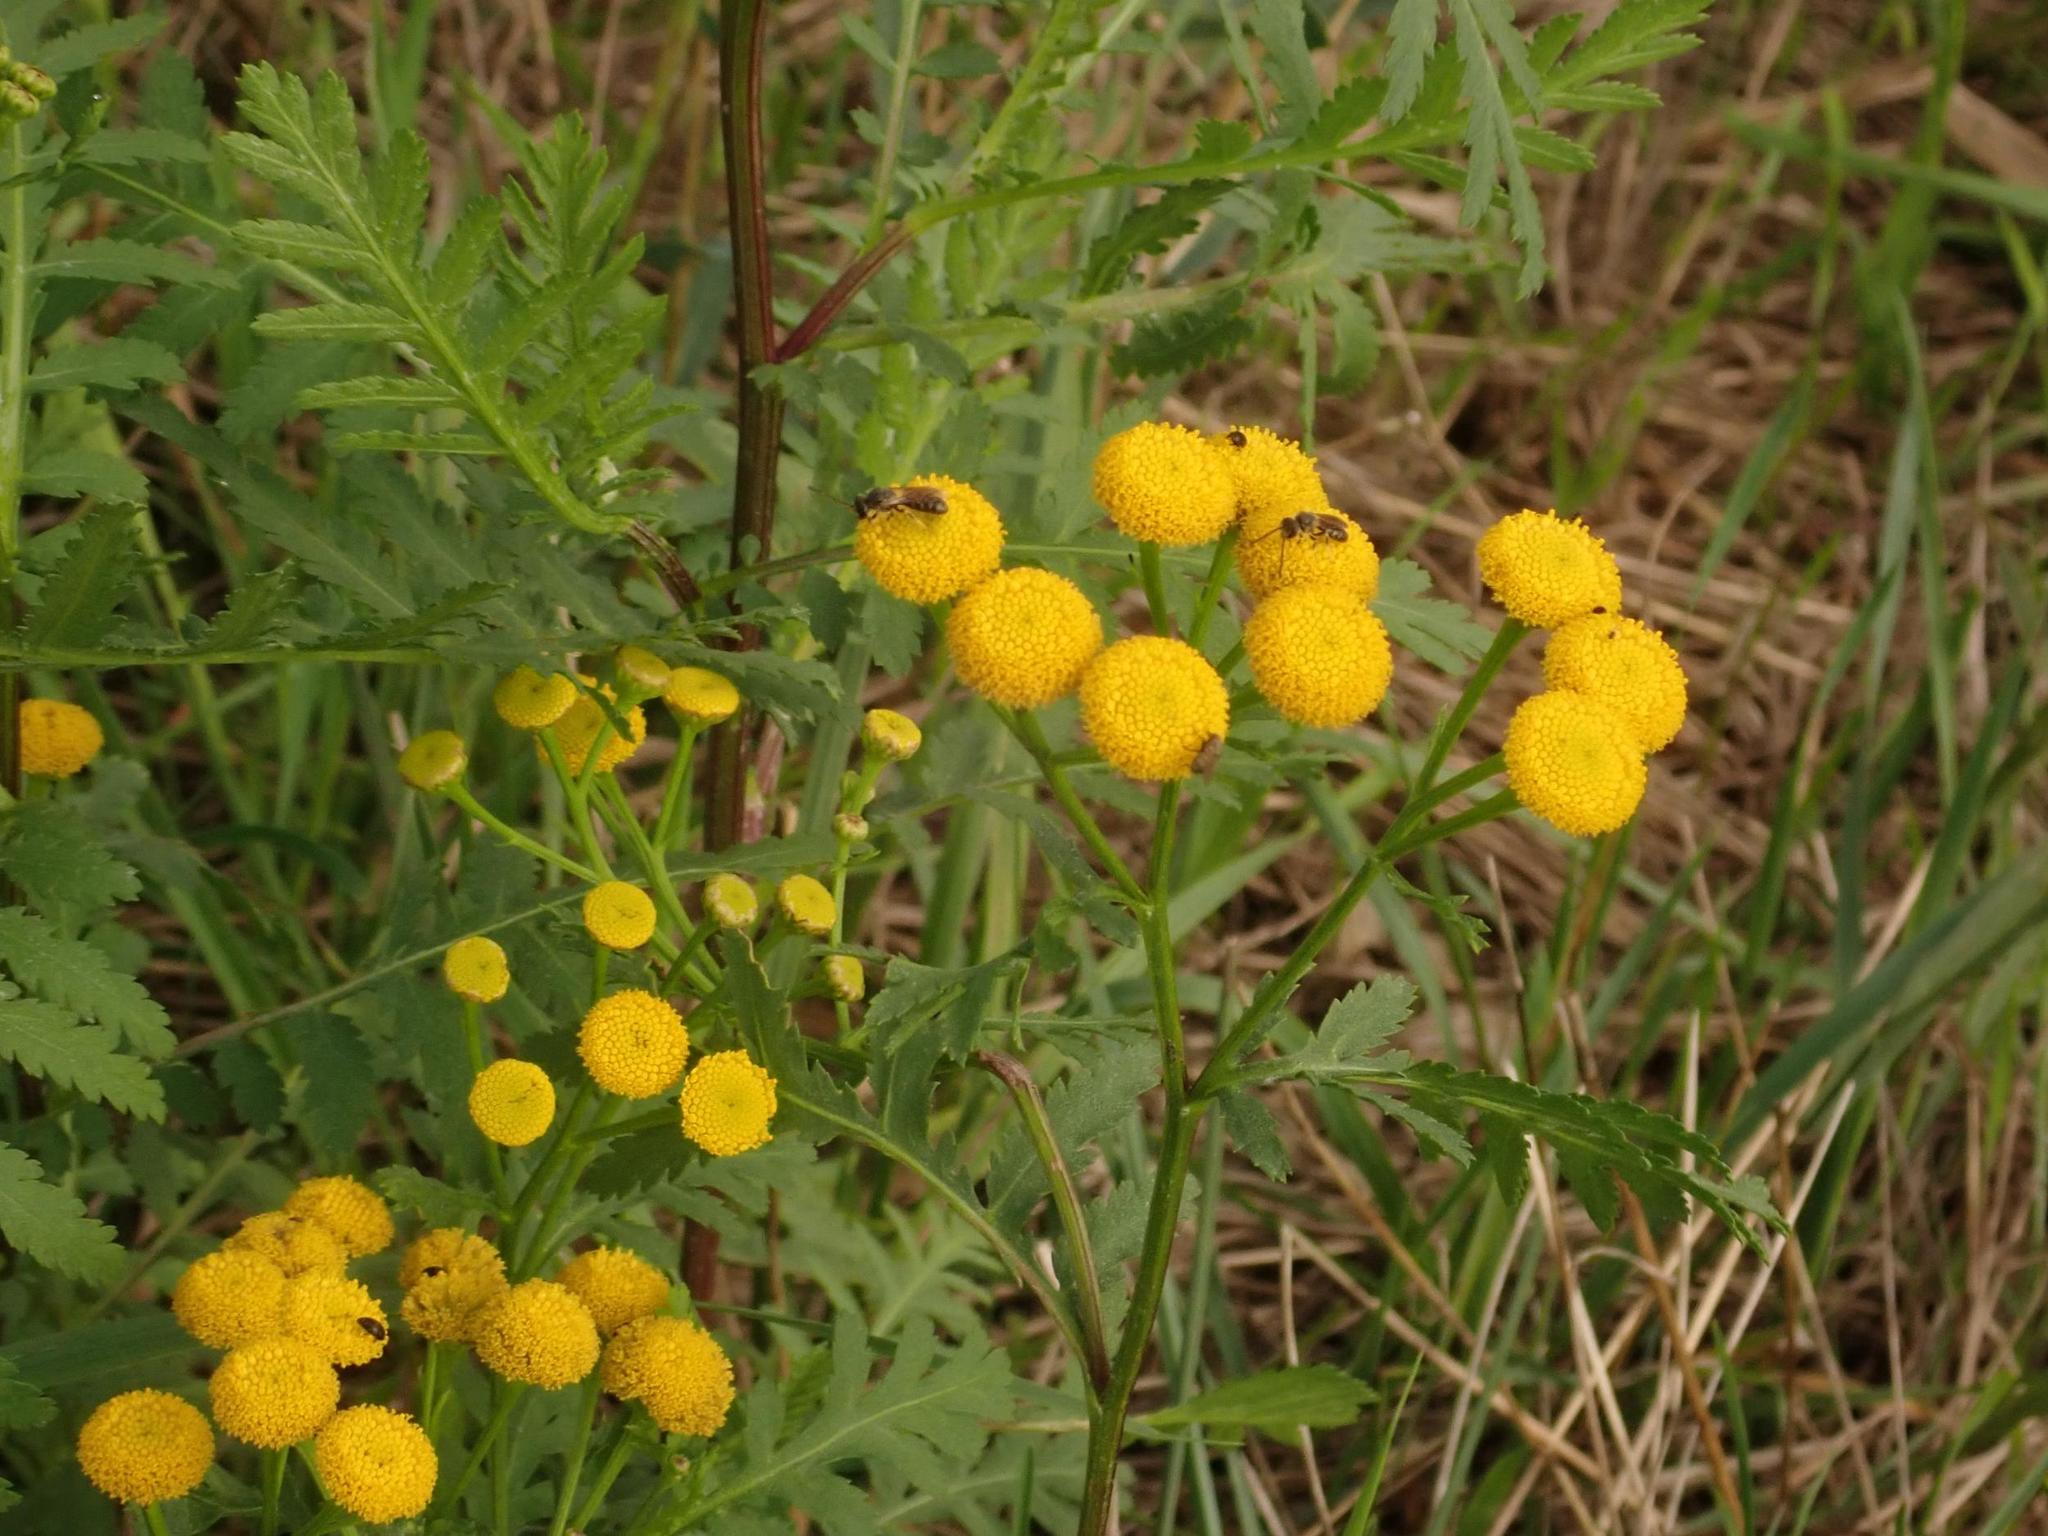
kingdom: Plantae
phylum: Tracheophyta
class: Magnoliopsida
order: Asterales
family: Asteraceae
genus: Tanacetum
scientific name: Tanacetum vulgare
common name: Common tansy
